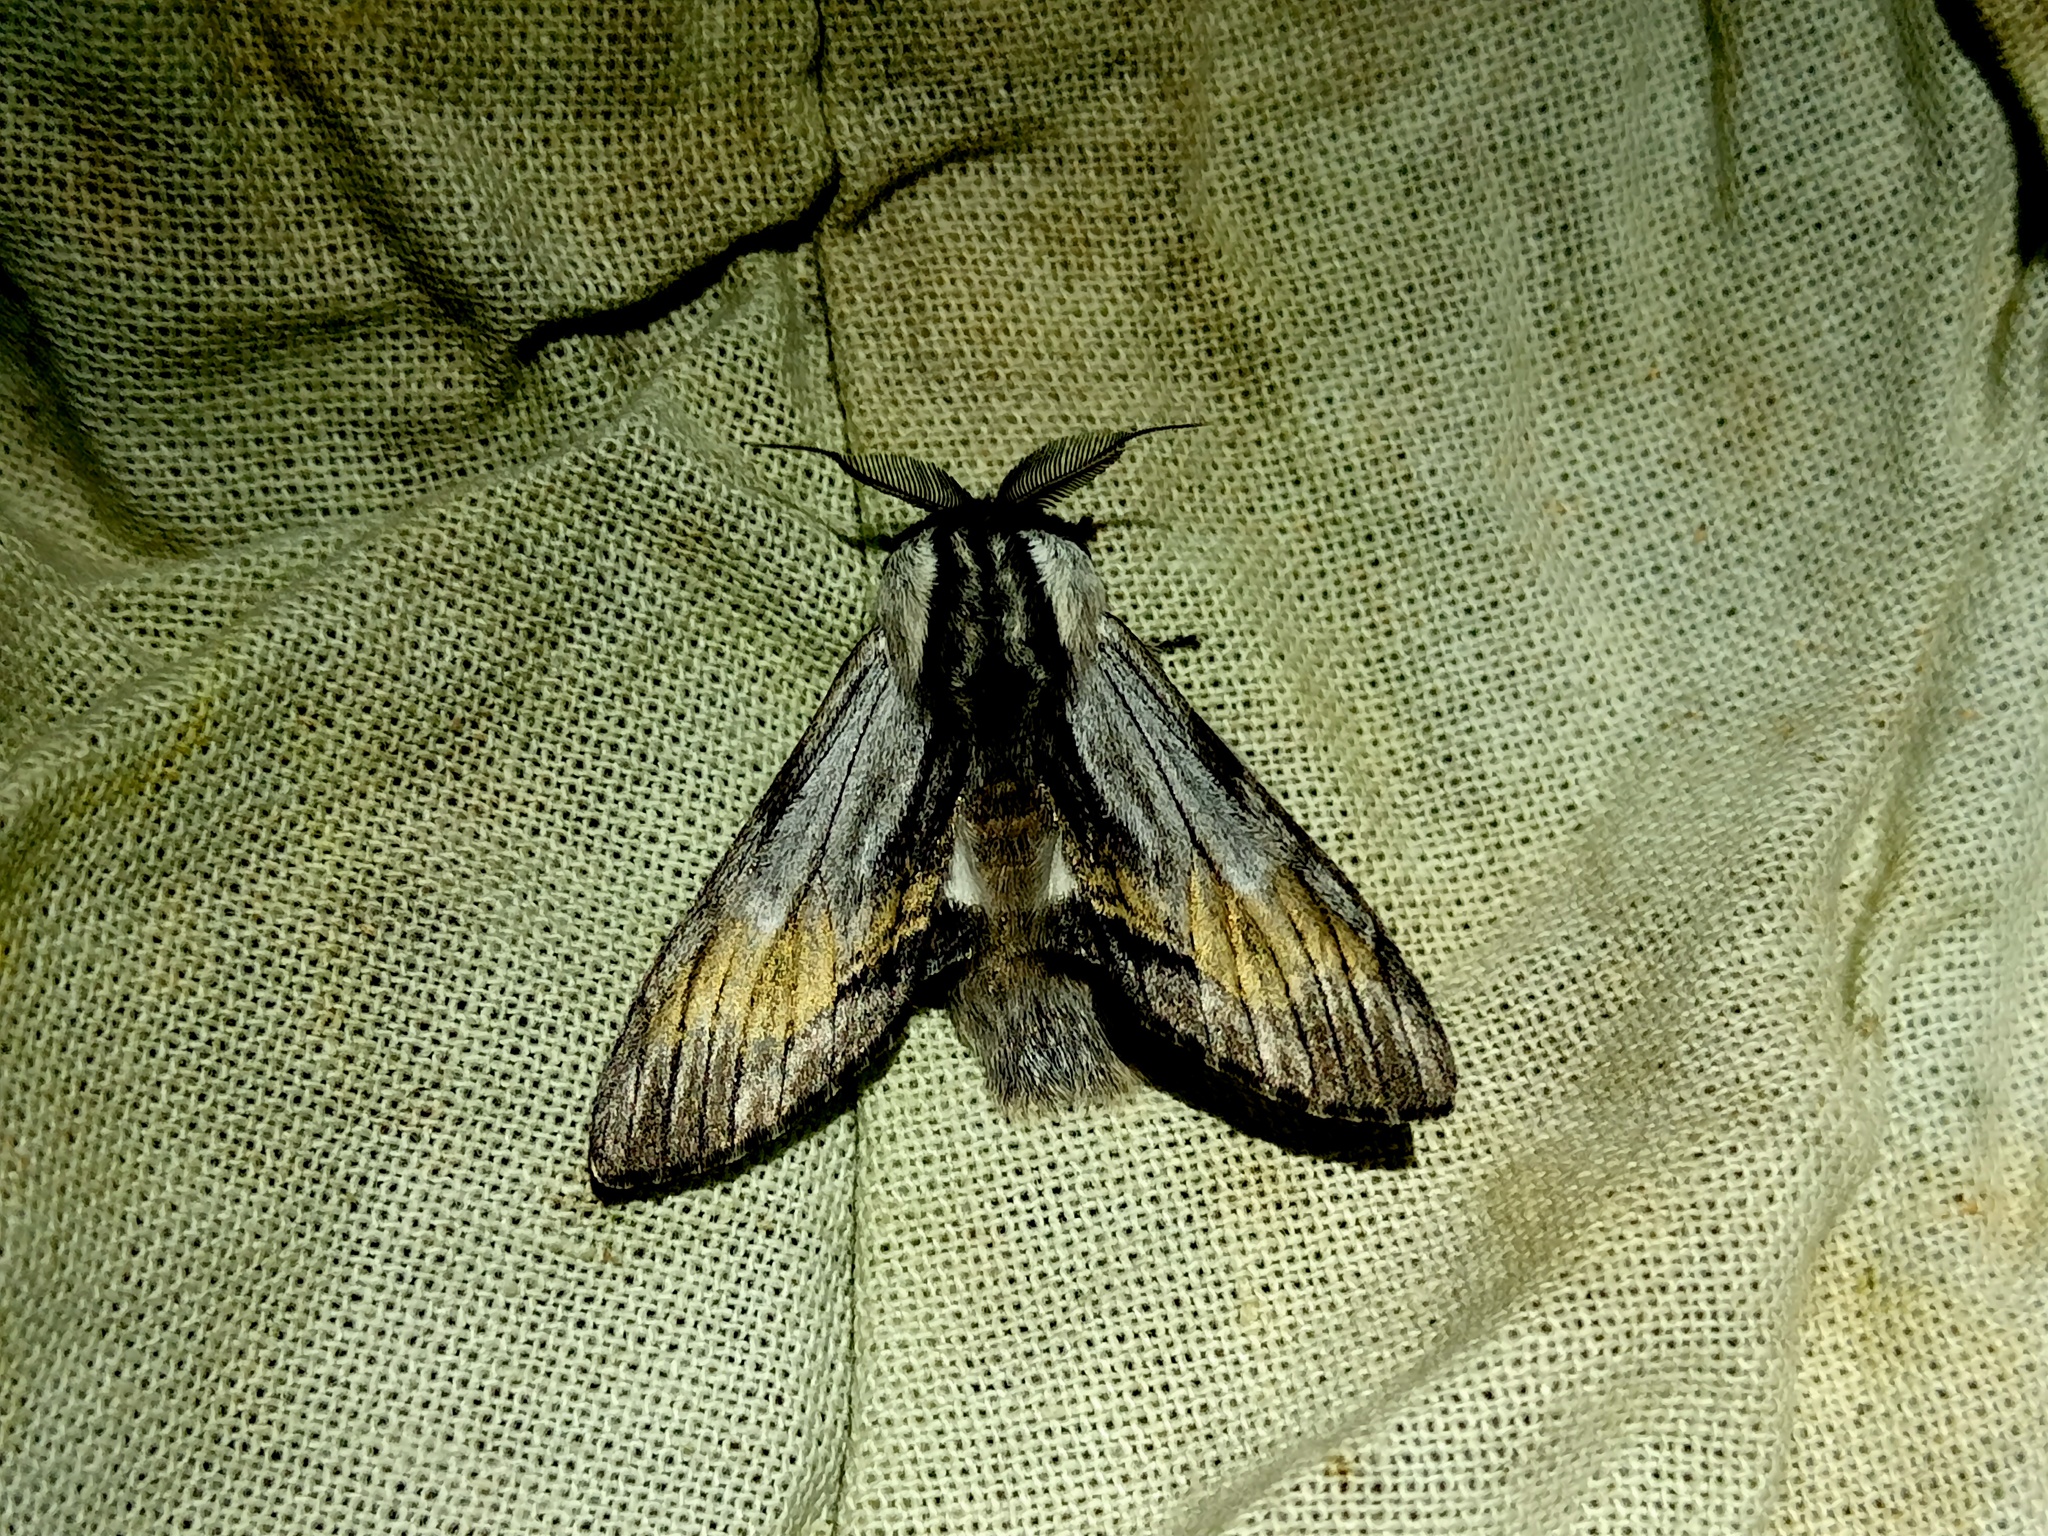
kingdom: Animalia
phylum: Arthropoda
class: Insecta
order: Lepidoptera
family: Notodontidae
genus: Harpyia
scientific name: Harpyia milhauseri
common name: Tawny prominent
